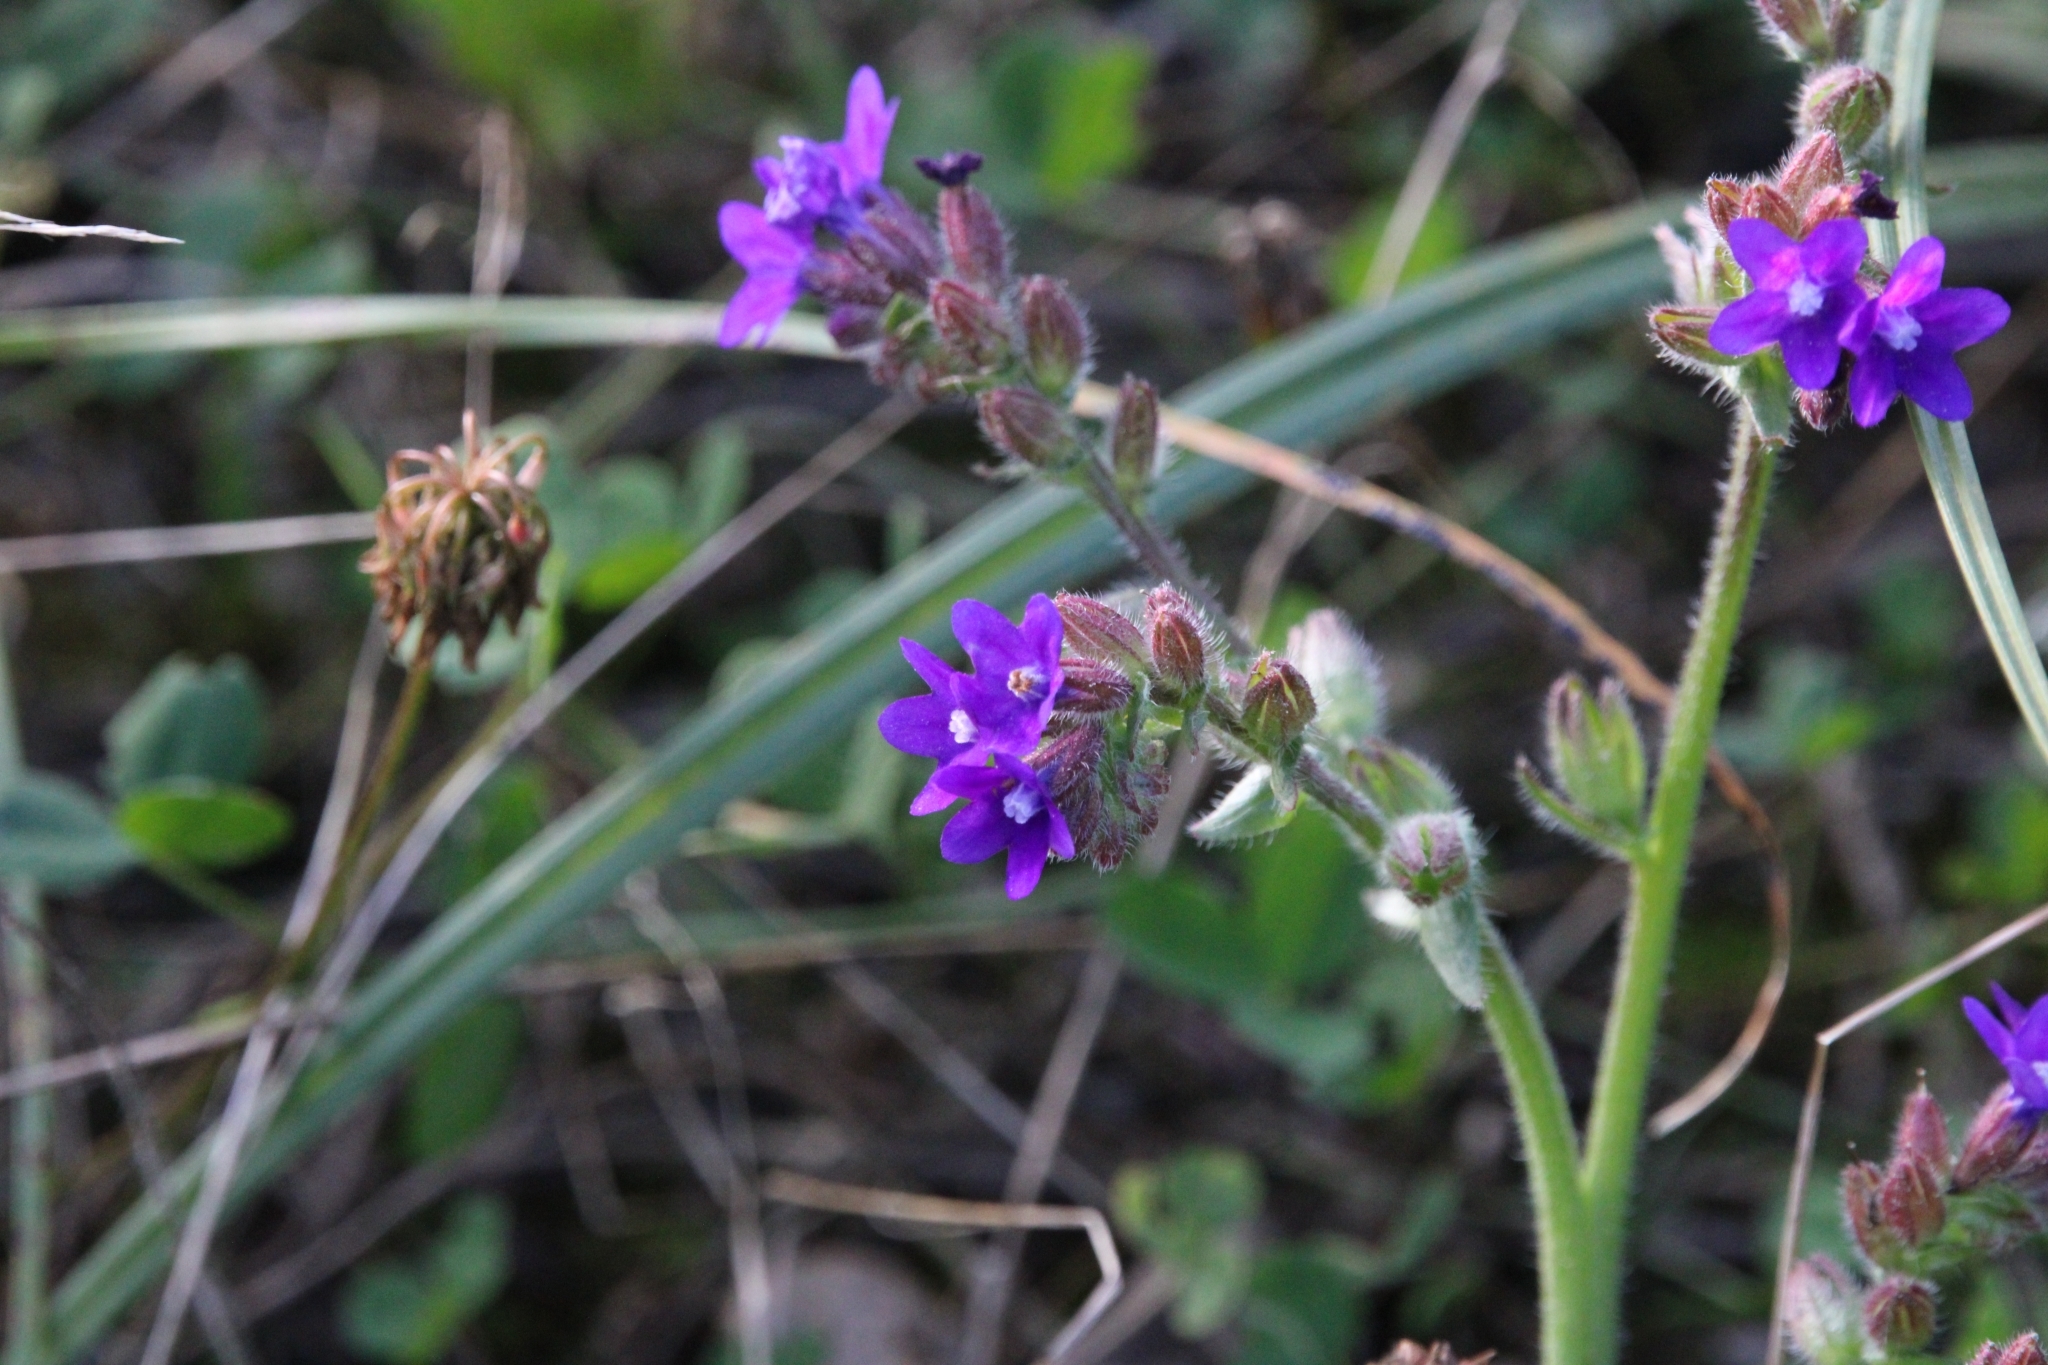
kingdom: Plantae
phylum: Tracheophyta
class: Magnoliopsida
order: Boraginales
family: Boraginaceae
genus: Anchusa
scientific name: Anchusa officinalis
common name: Alkanet
